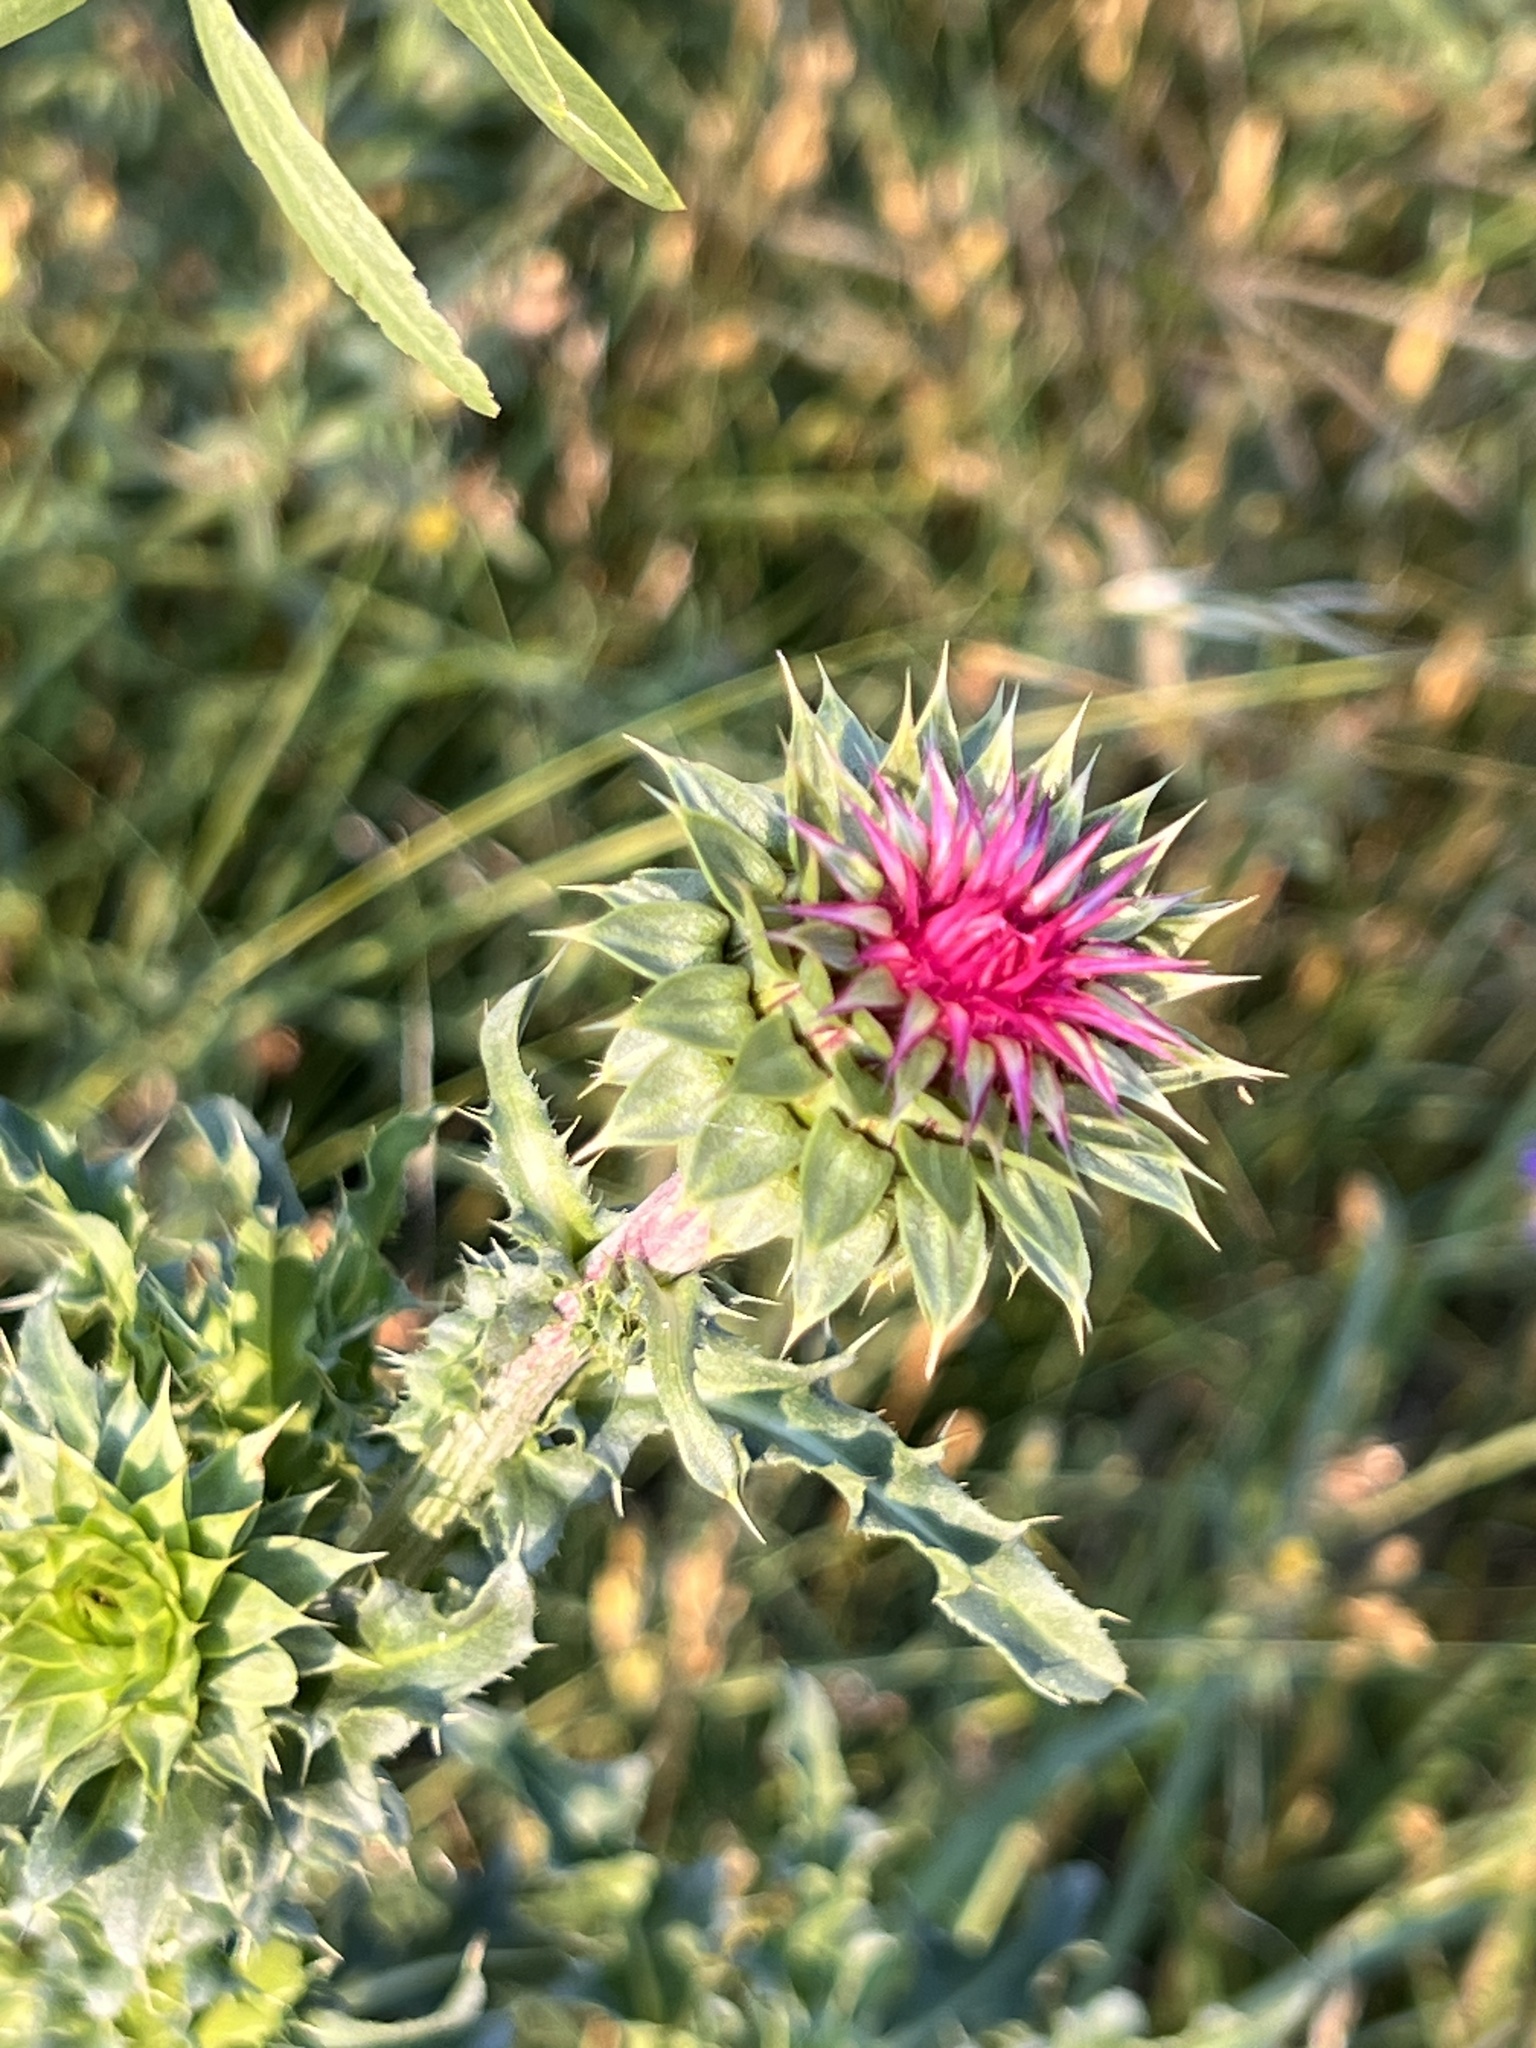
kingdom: Plantae
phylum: Tracheophyta
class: Magnoliopsida
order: Asterales
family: Asteraceae
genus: Carduus
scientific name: Carduus nutans
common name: Musk thistle
